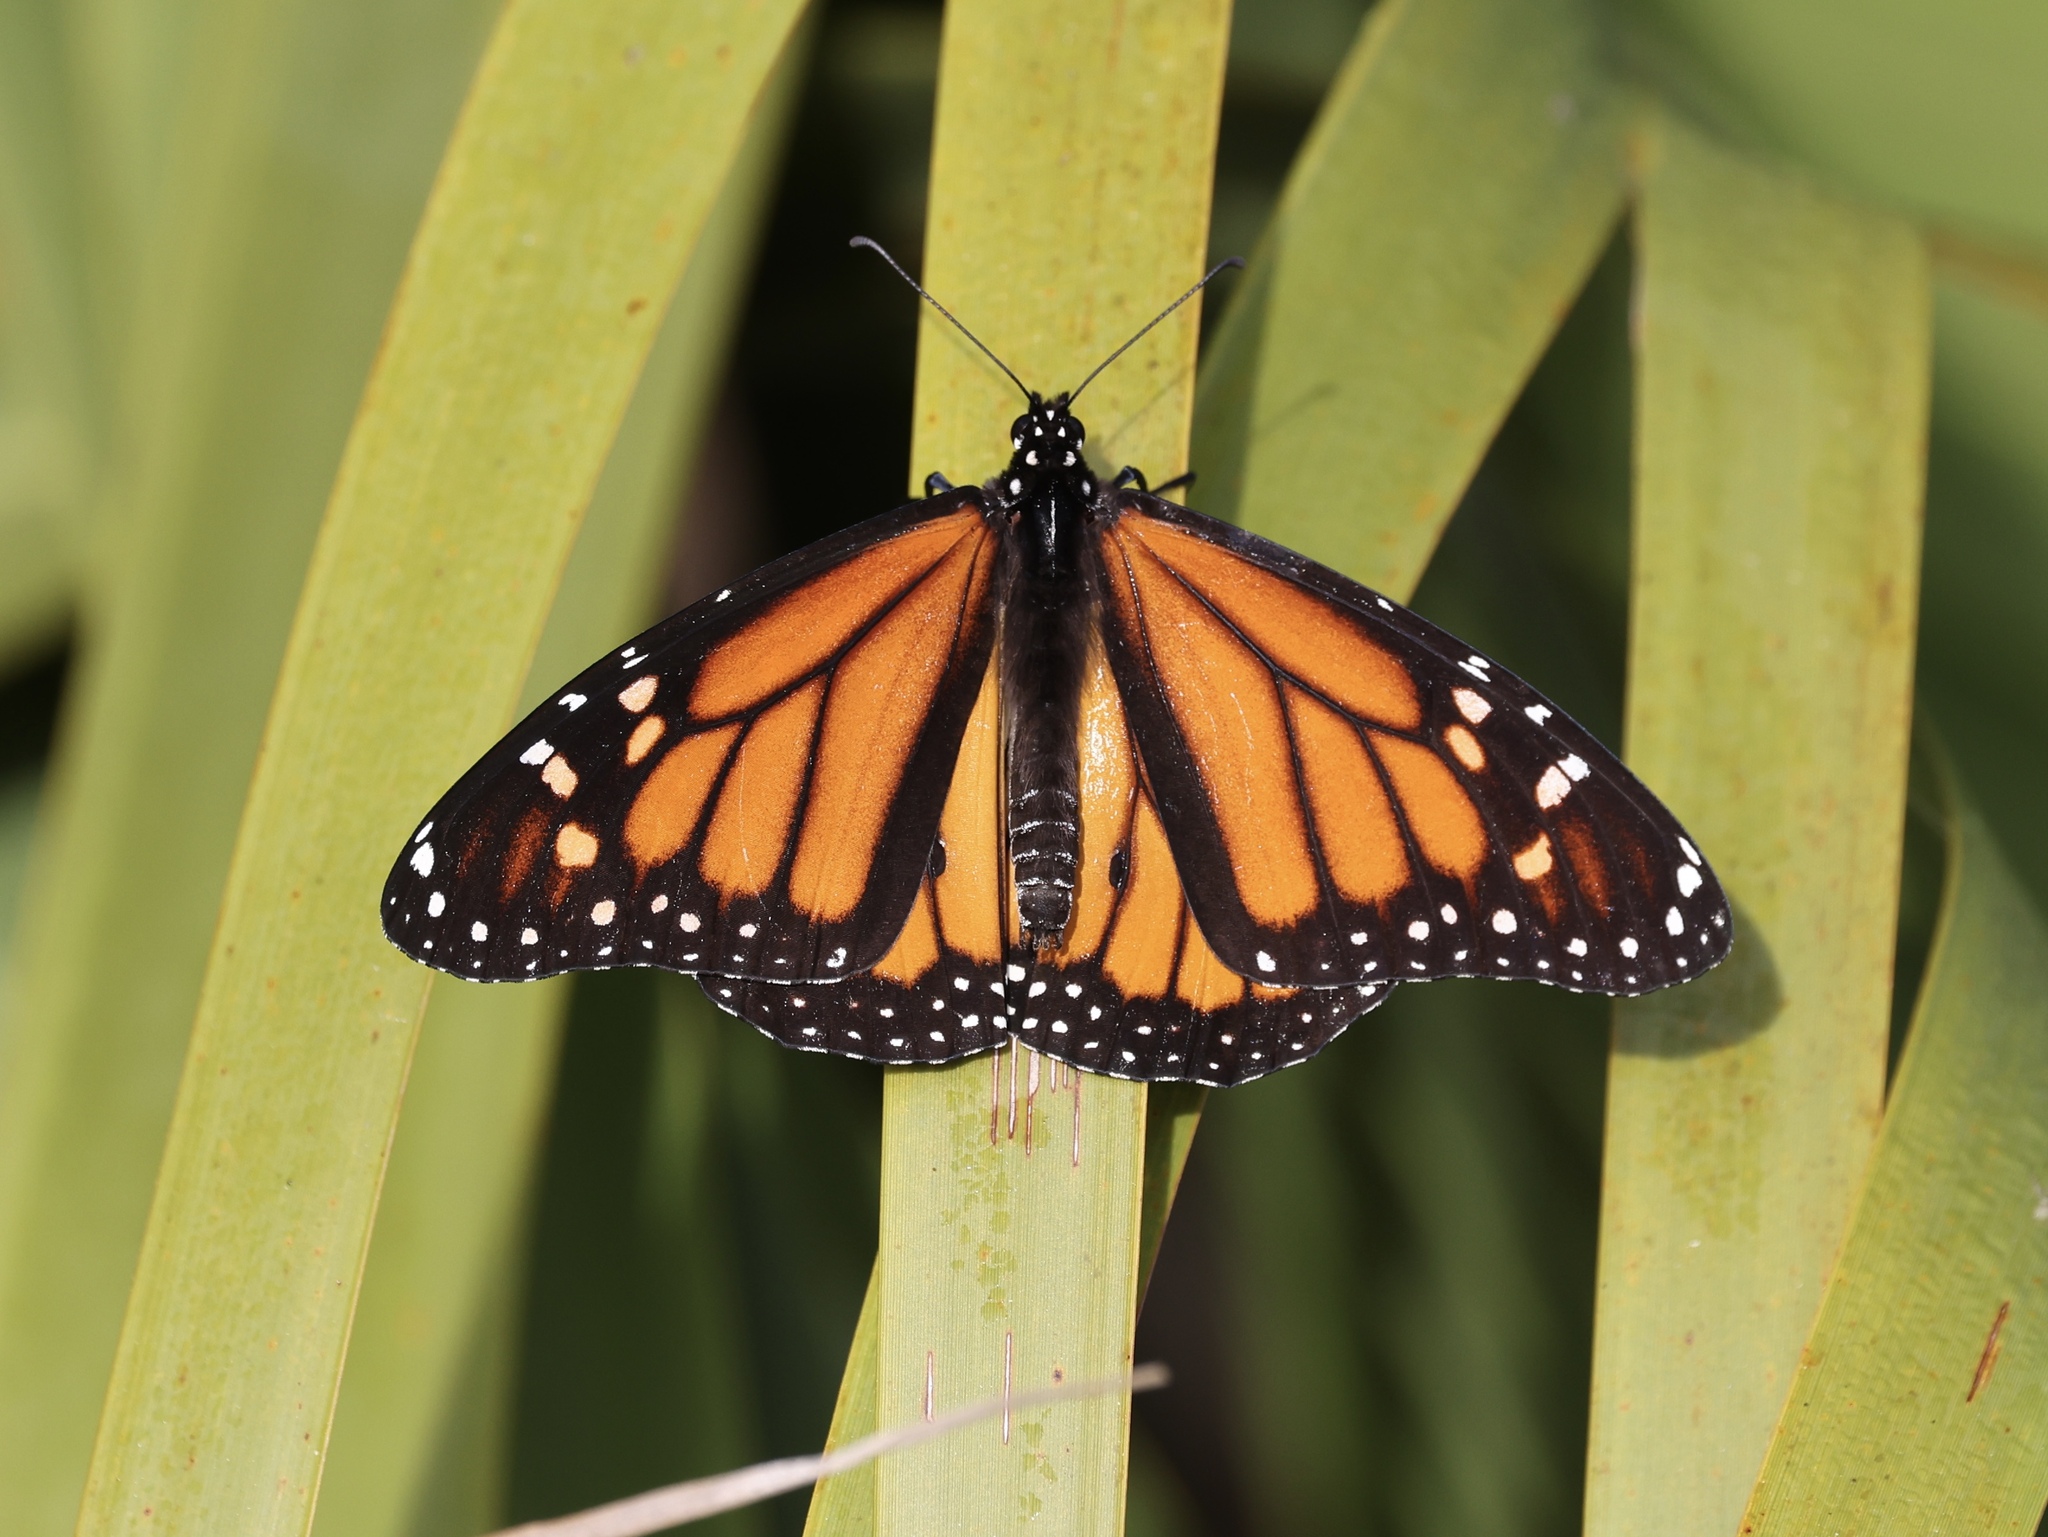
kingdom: Animalia
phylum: Arthropoda
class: Insecta
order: Lepidoptera
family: Nymphalidae
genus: Danaus
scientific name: Danaus plexippus
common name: Monarch
